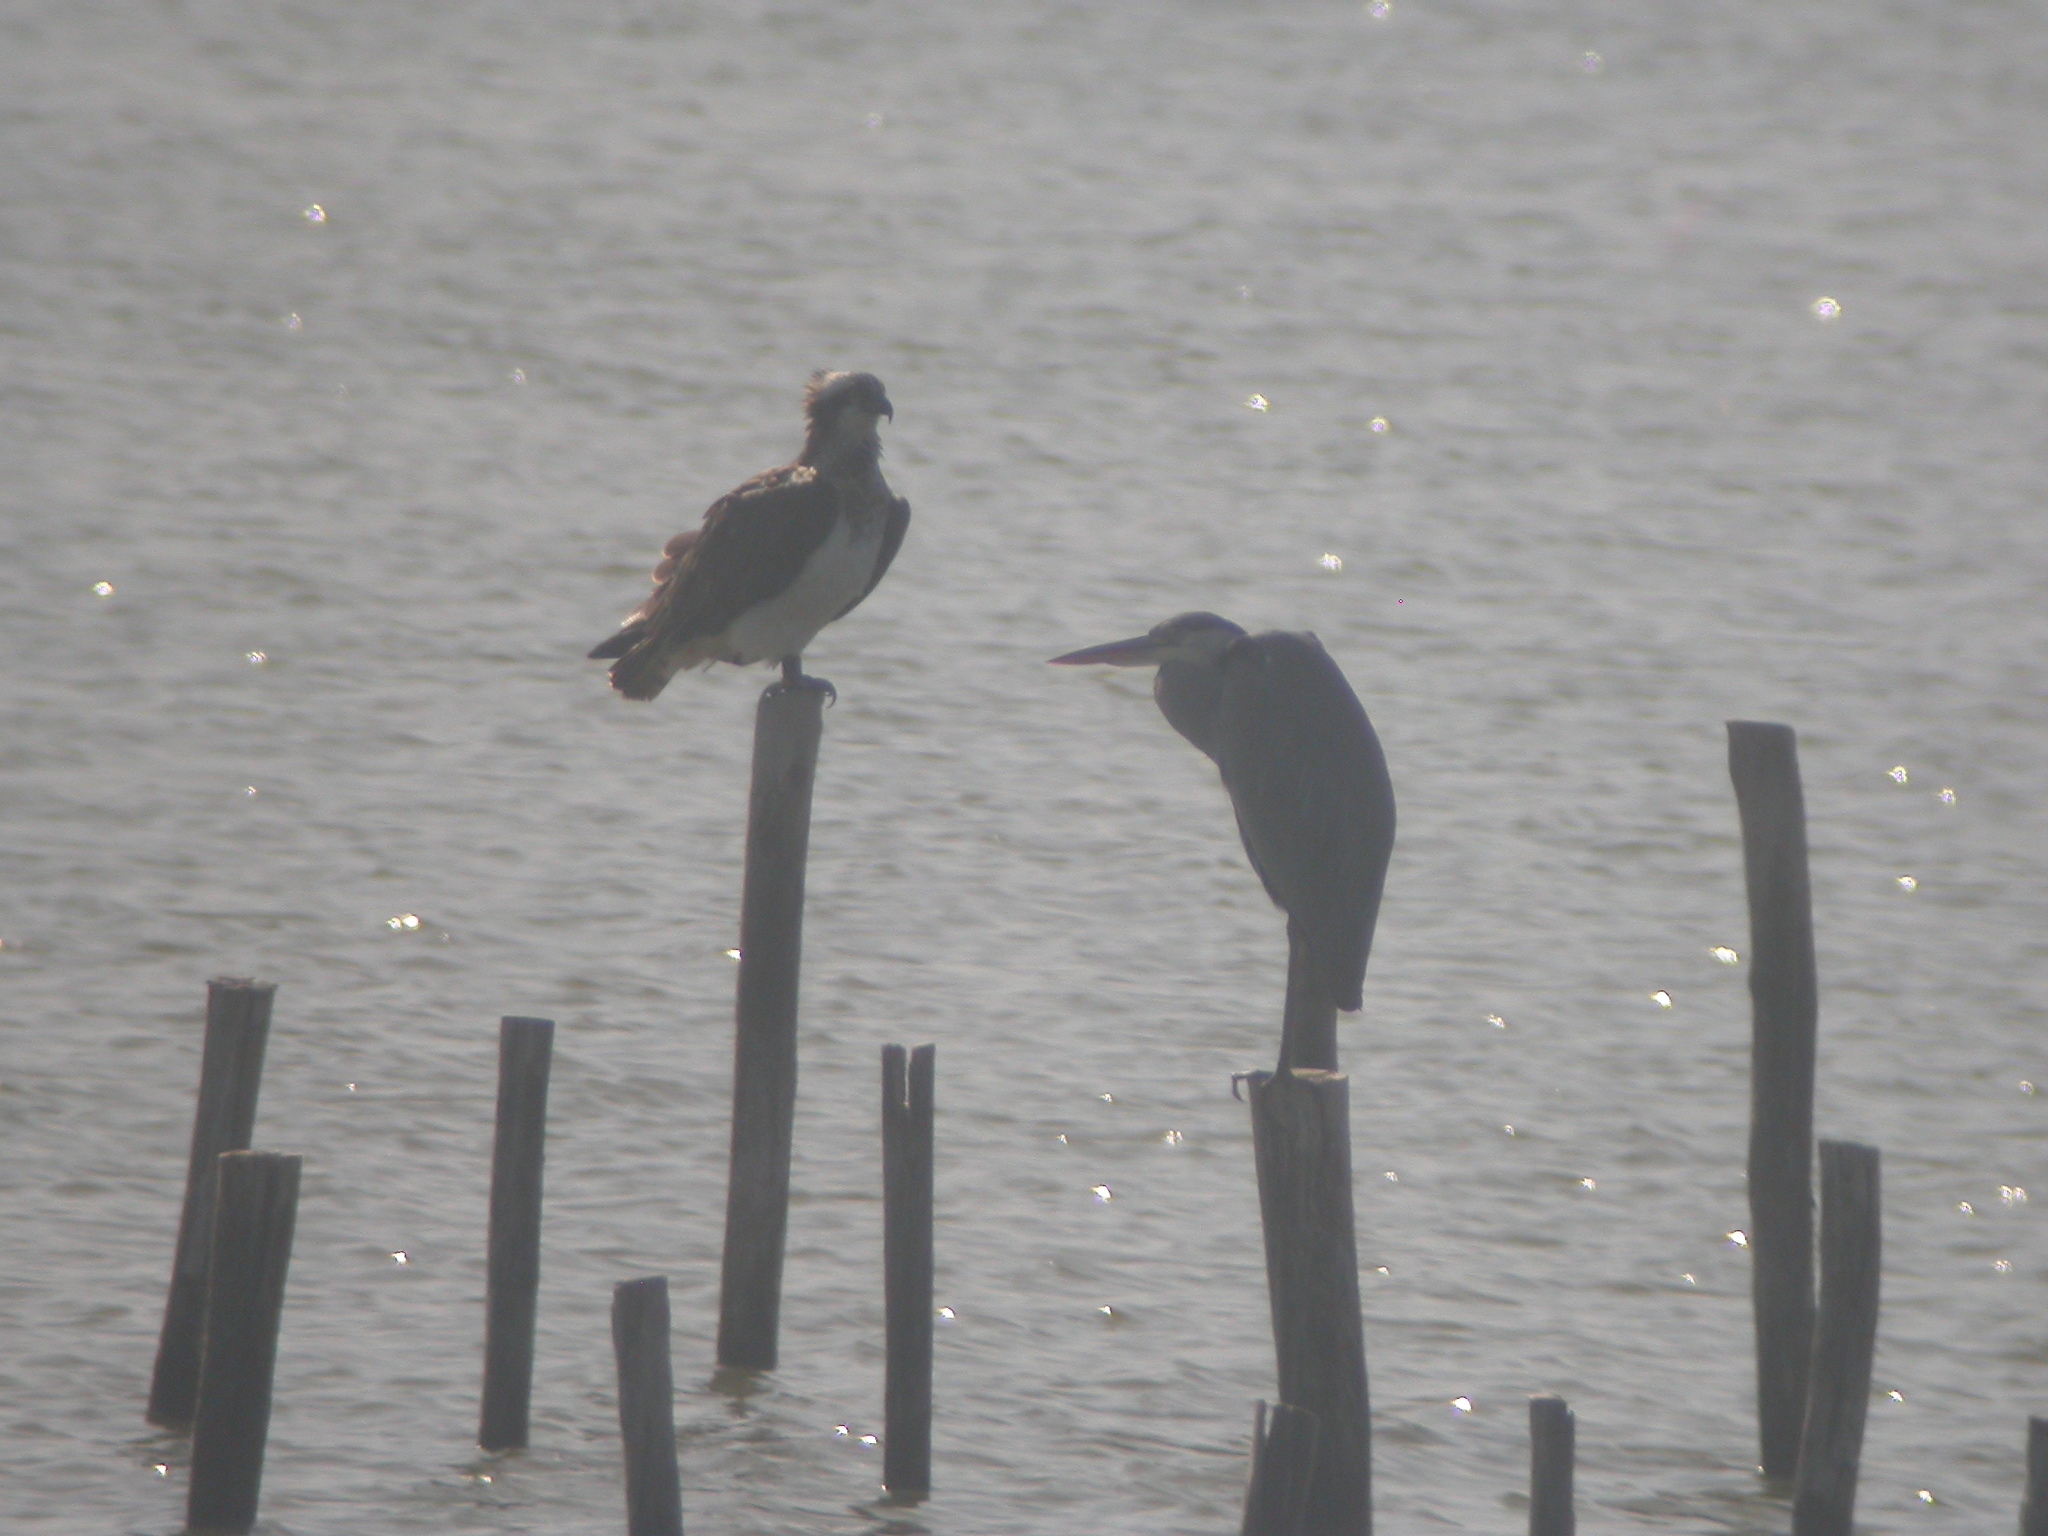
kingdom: Animalia
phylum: Chordata
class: Aves
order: Accipitriformes
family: Pandionidae
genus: Pandion
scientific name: Pandion haliaetus
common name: Osprey
